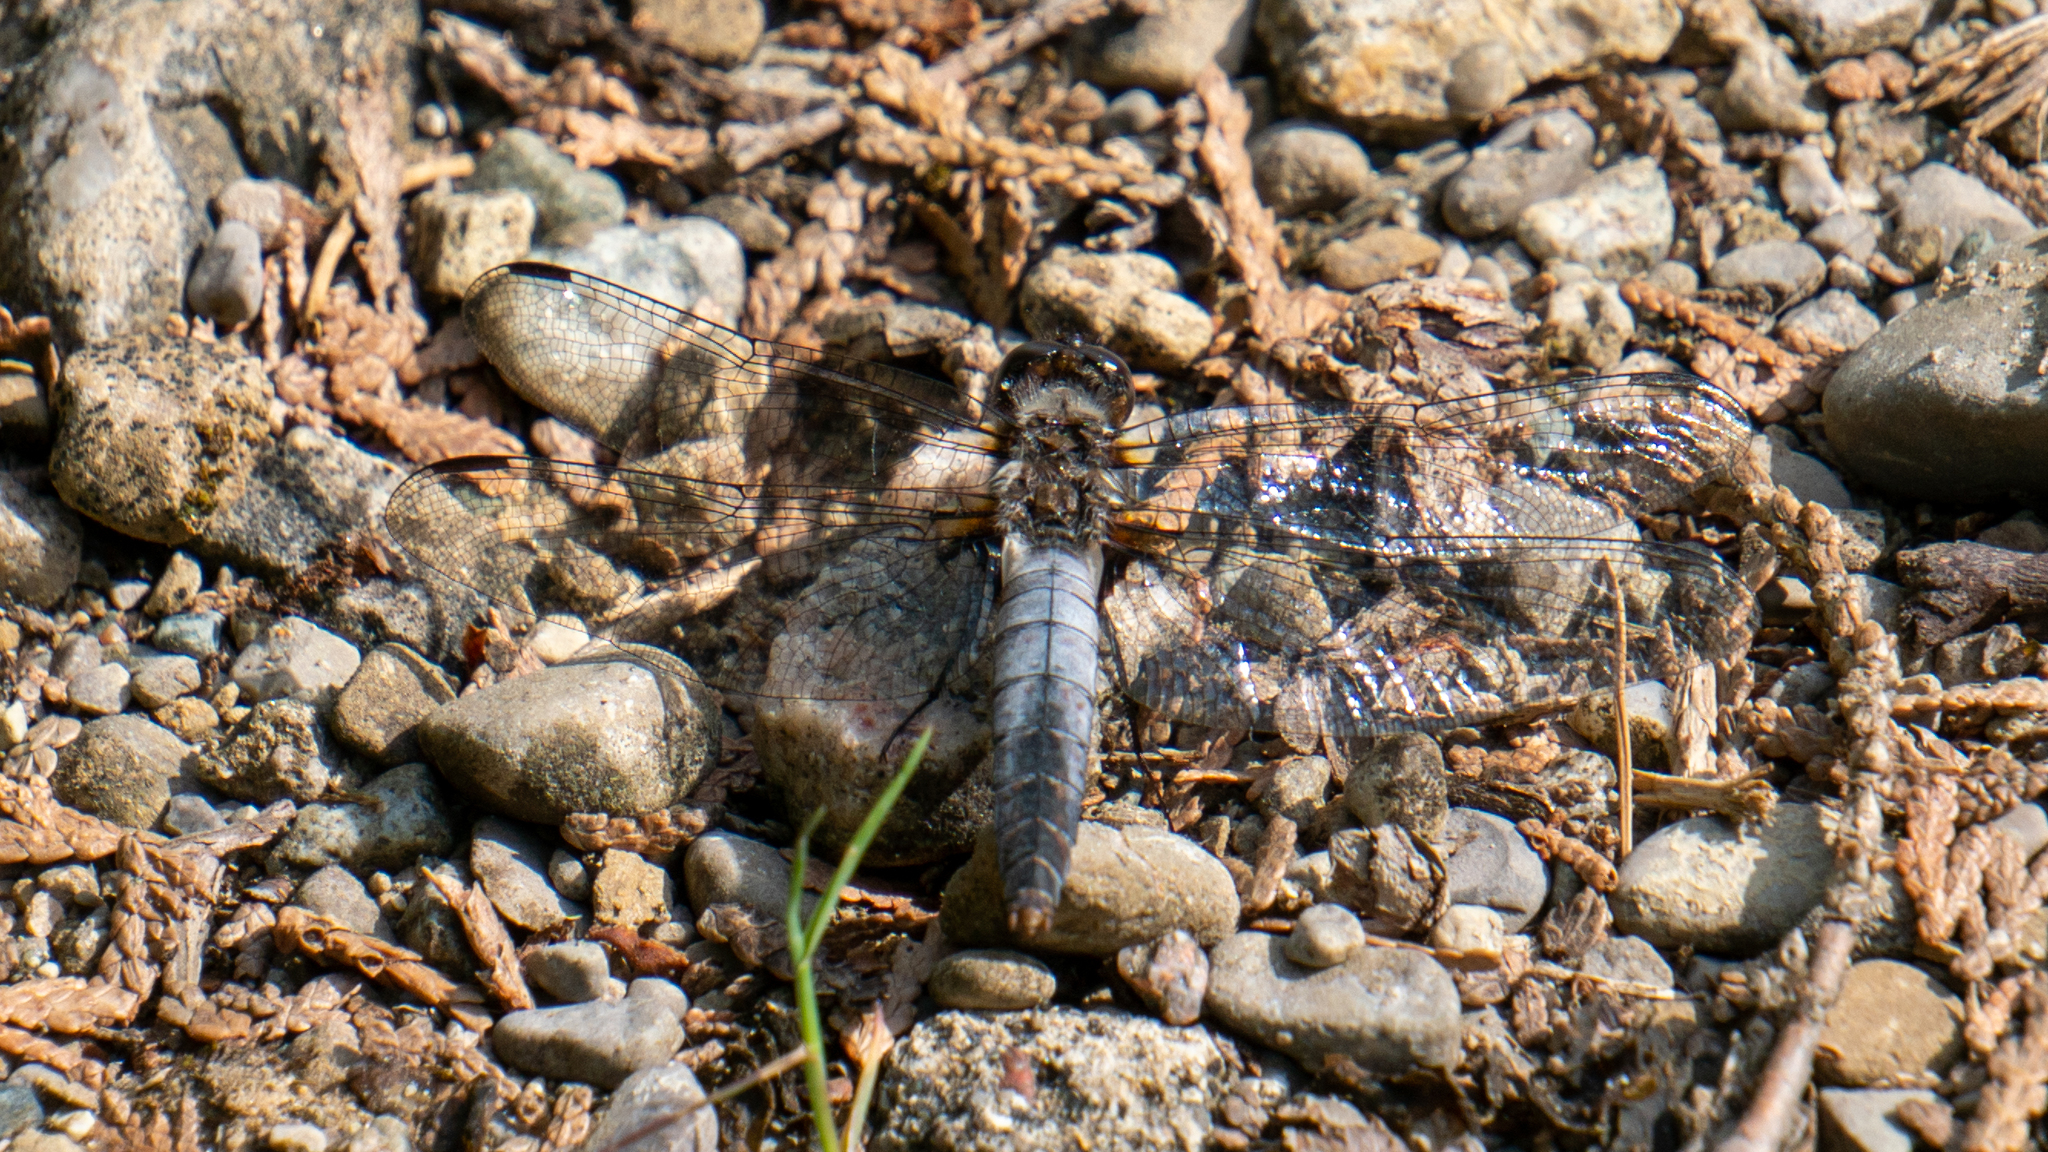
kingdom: Animalia
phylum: Arthropoda
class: Insecta
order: Odonata
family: Libellulidae
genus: Ladona
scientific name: Ladona julia
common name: Chalk-fronted corporal
